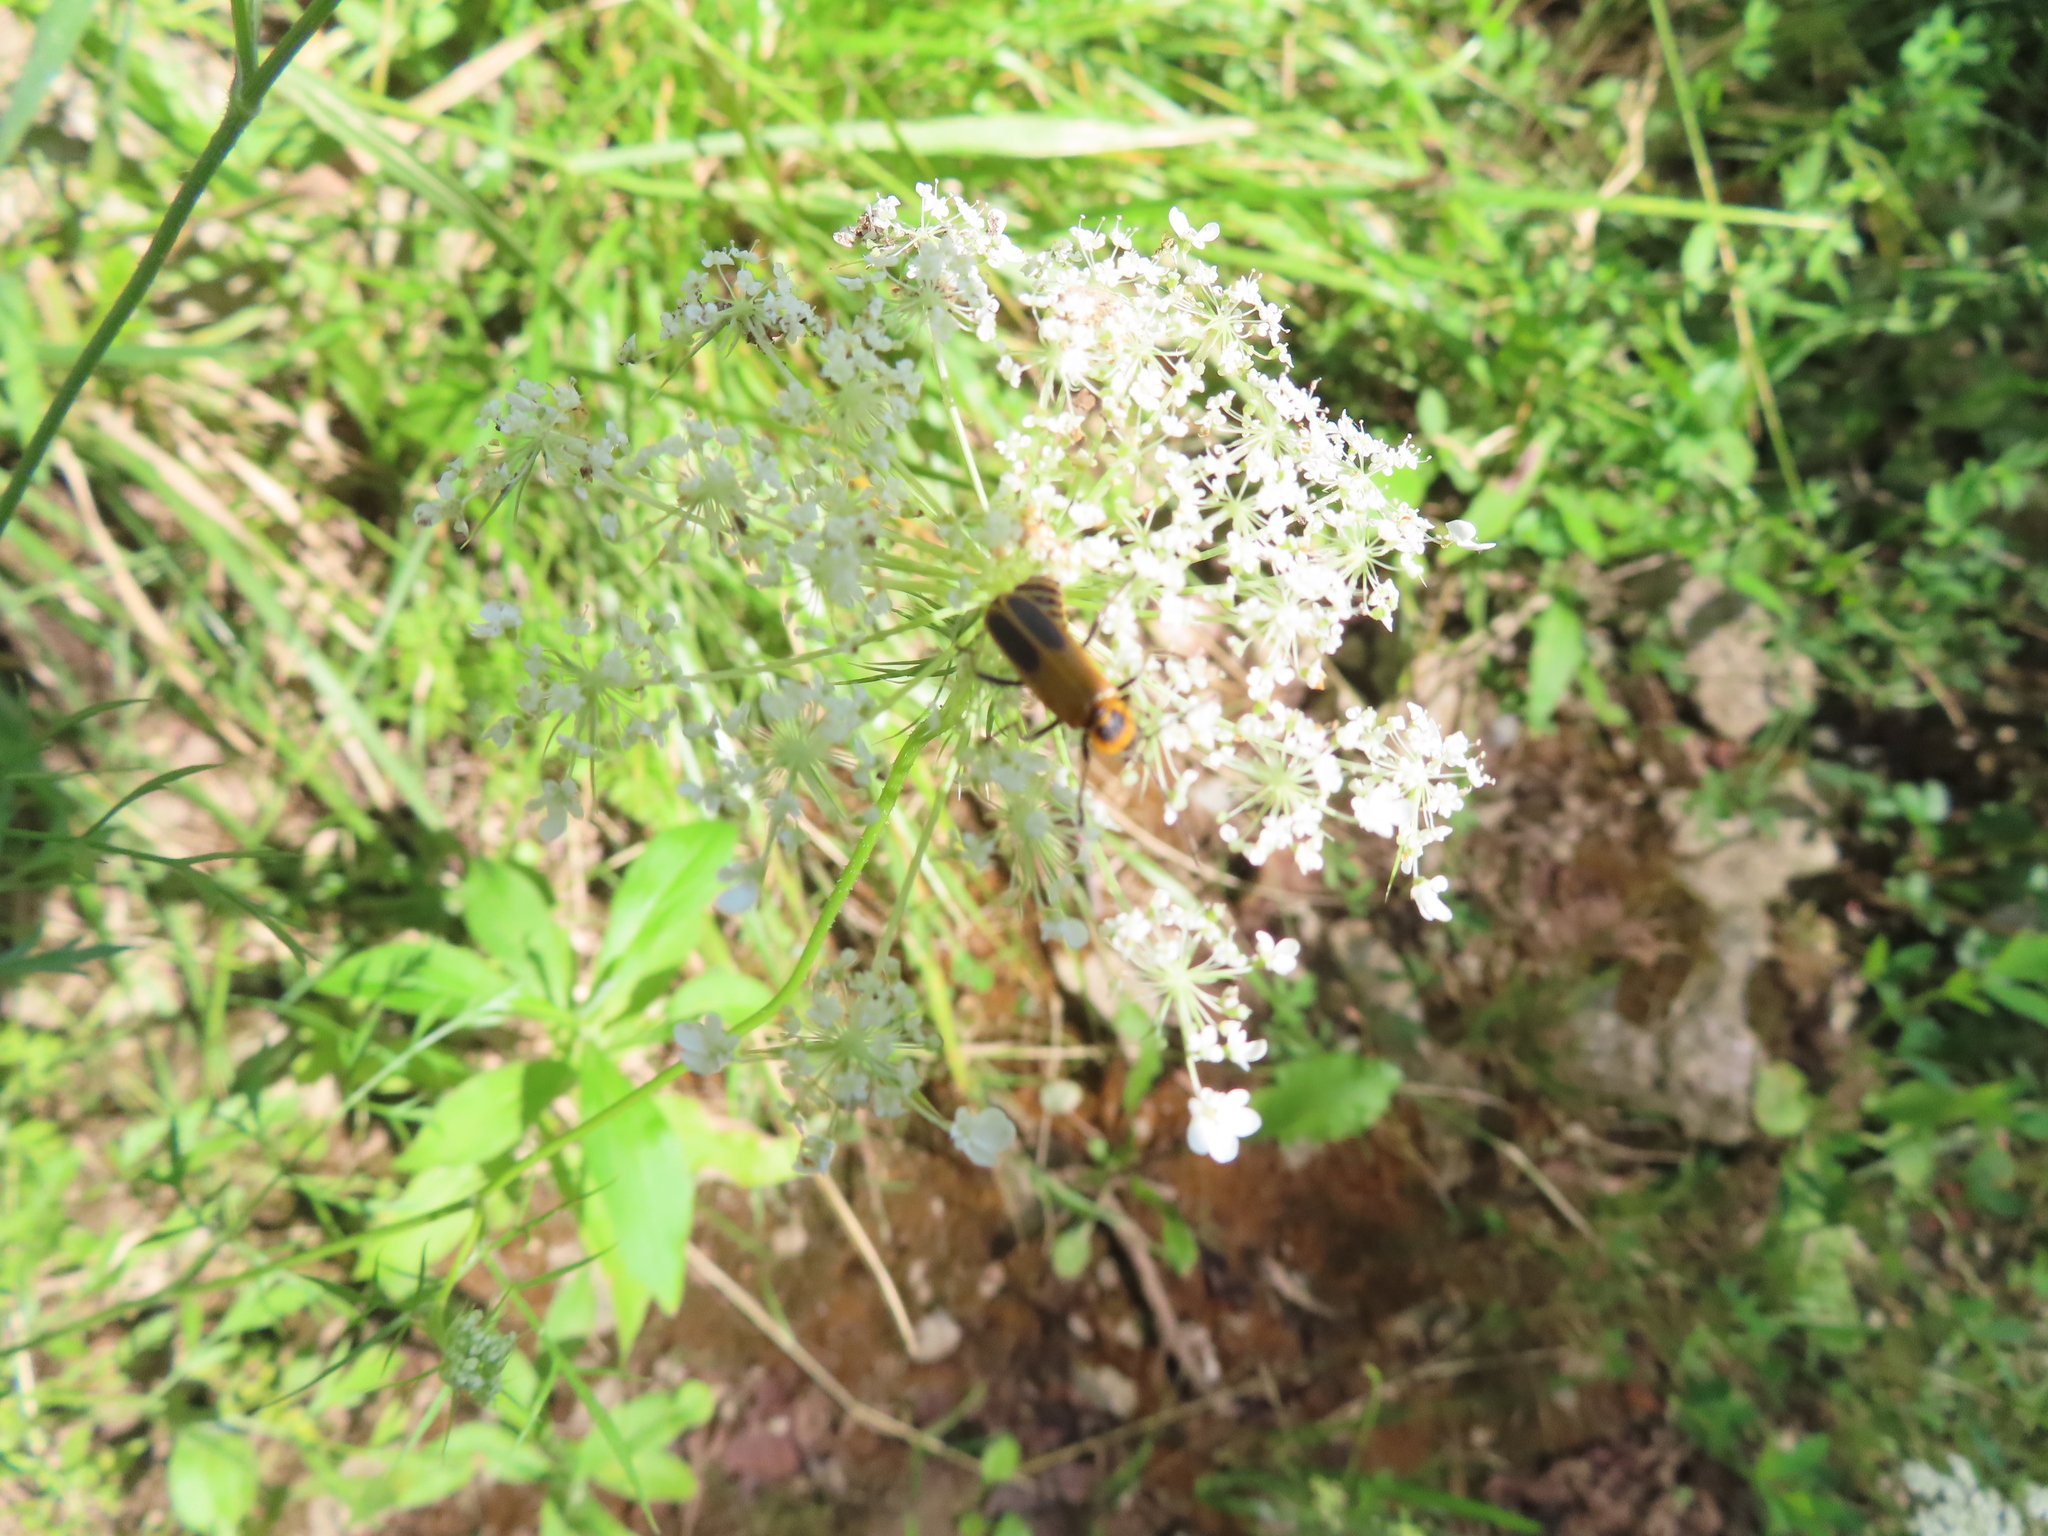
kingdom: Animalia
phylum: Arthropoda
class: Insecta
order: Coleoptera
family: Cantharidae
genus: Chauliognathus
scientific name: Chauliognathus pensylvanicus
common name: Goldenrod soldier beetle
